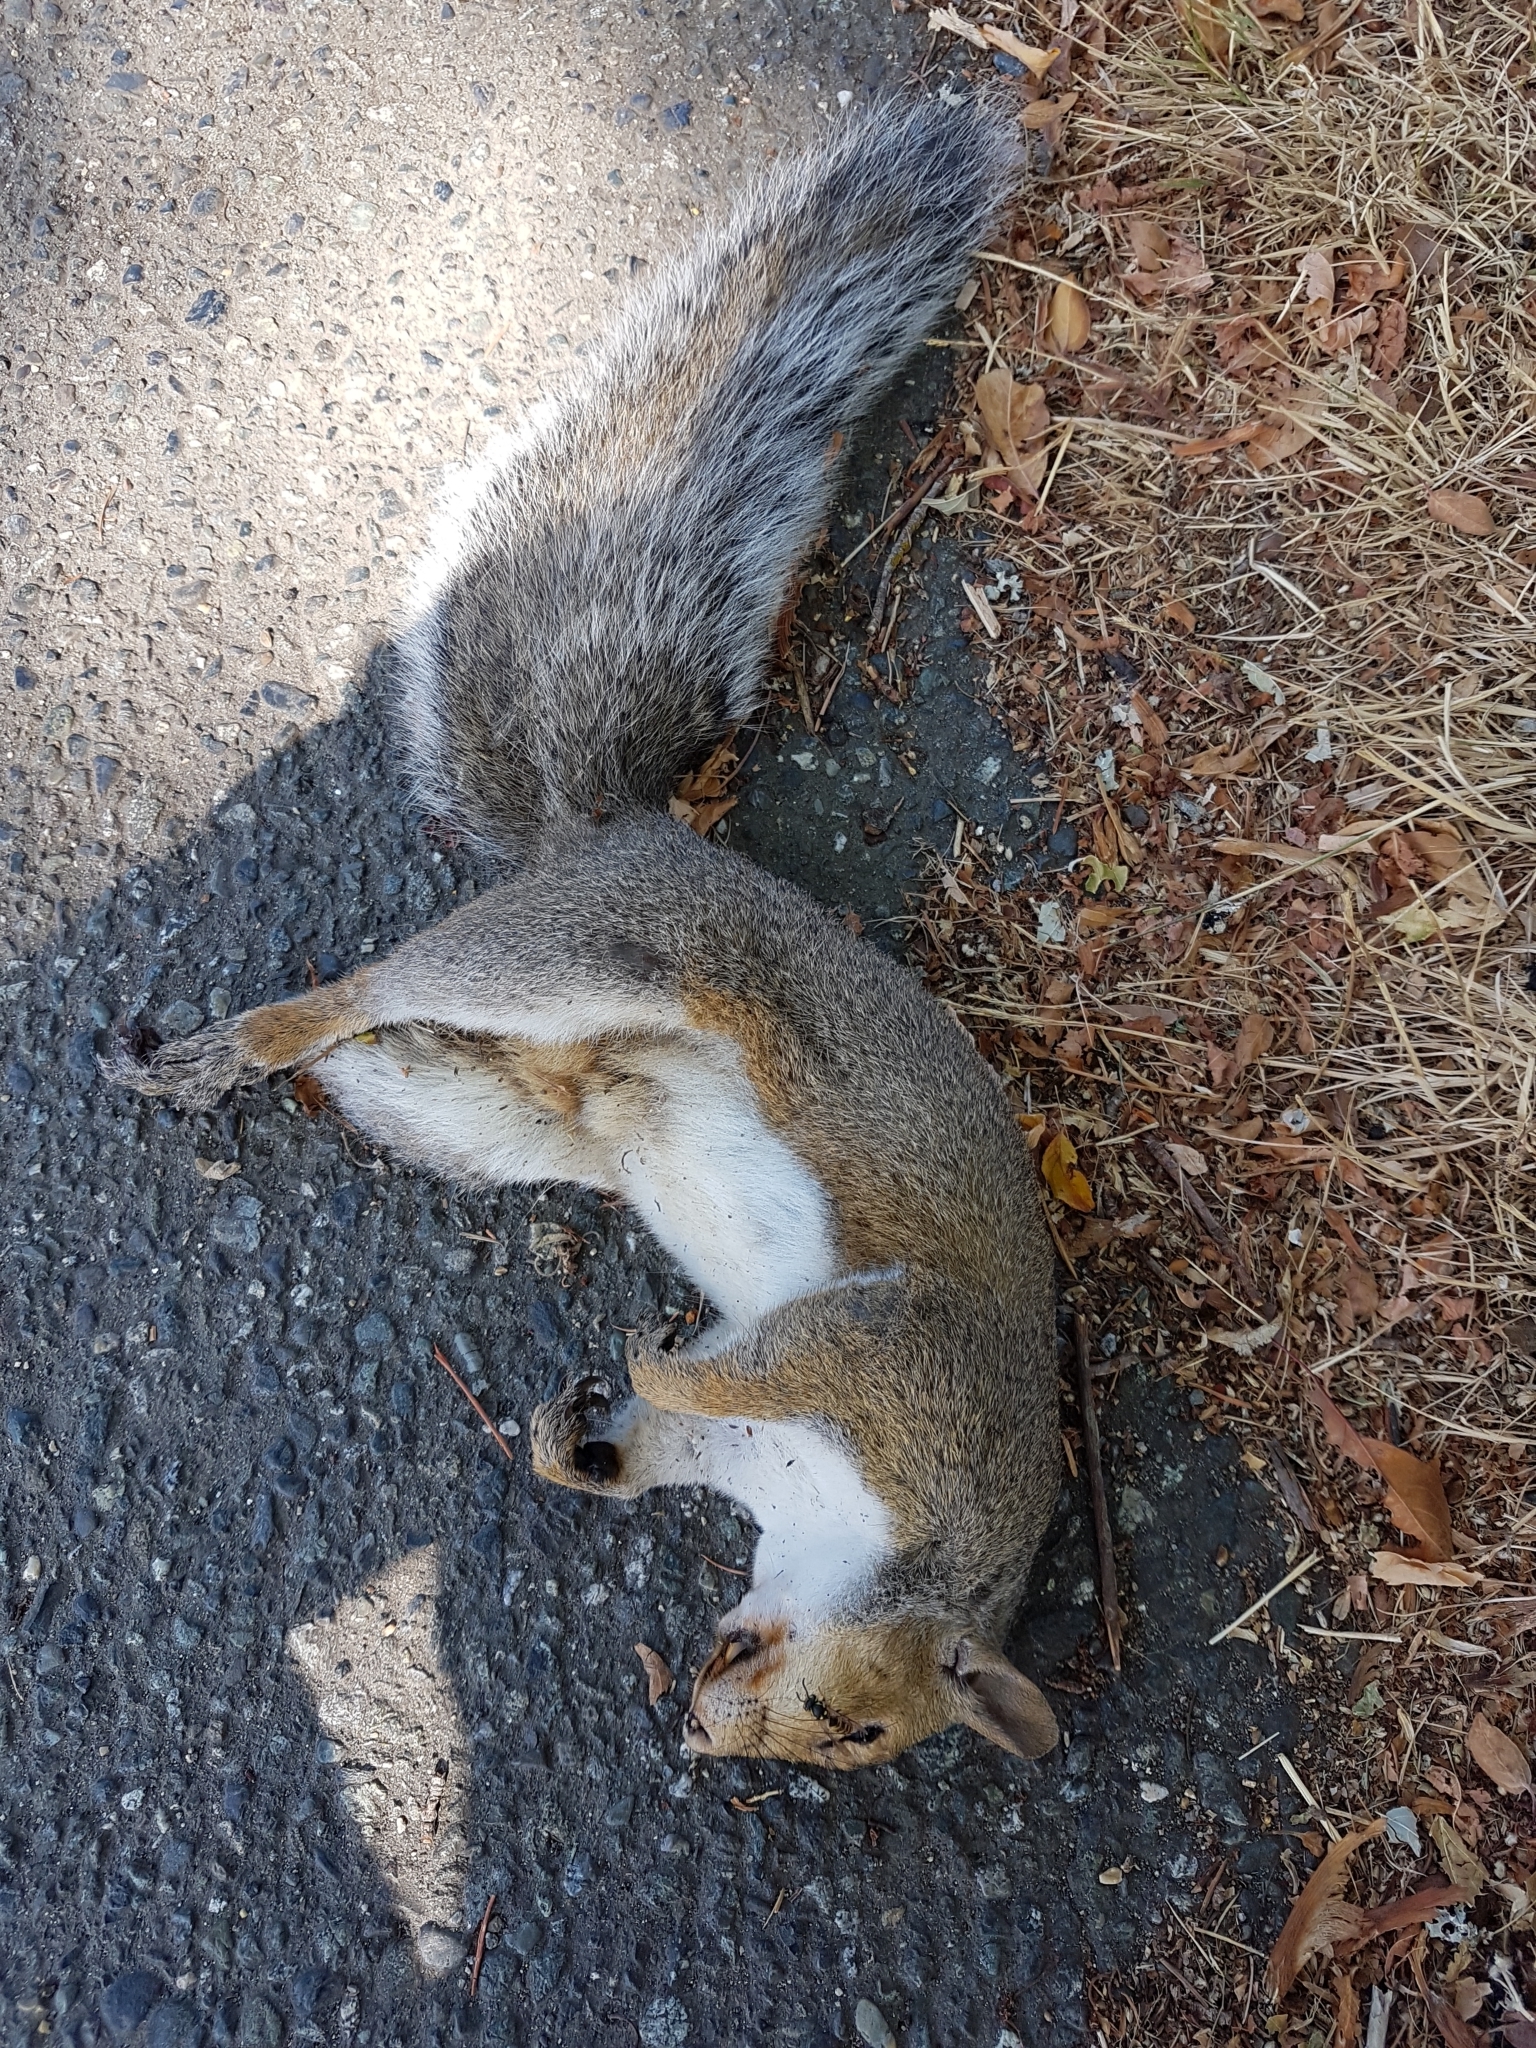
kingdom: Animalia
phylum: Chordata
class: Mammalia
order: Rodentia
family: Sciuridae
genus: Sciurus
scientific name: Sciurus carolinensis
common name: Eastern gray squirrel
